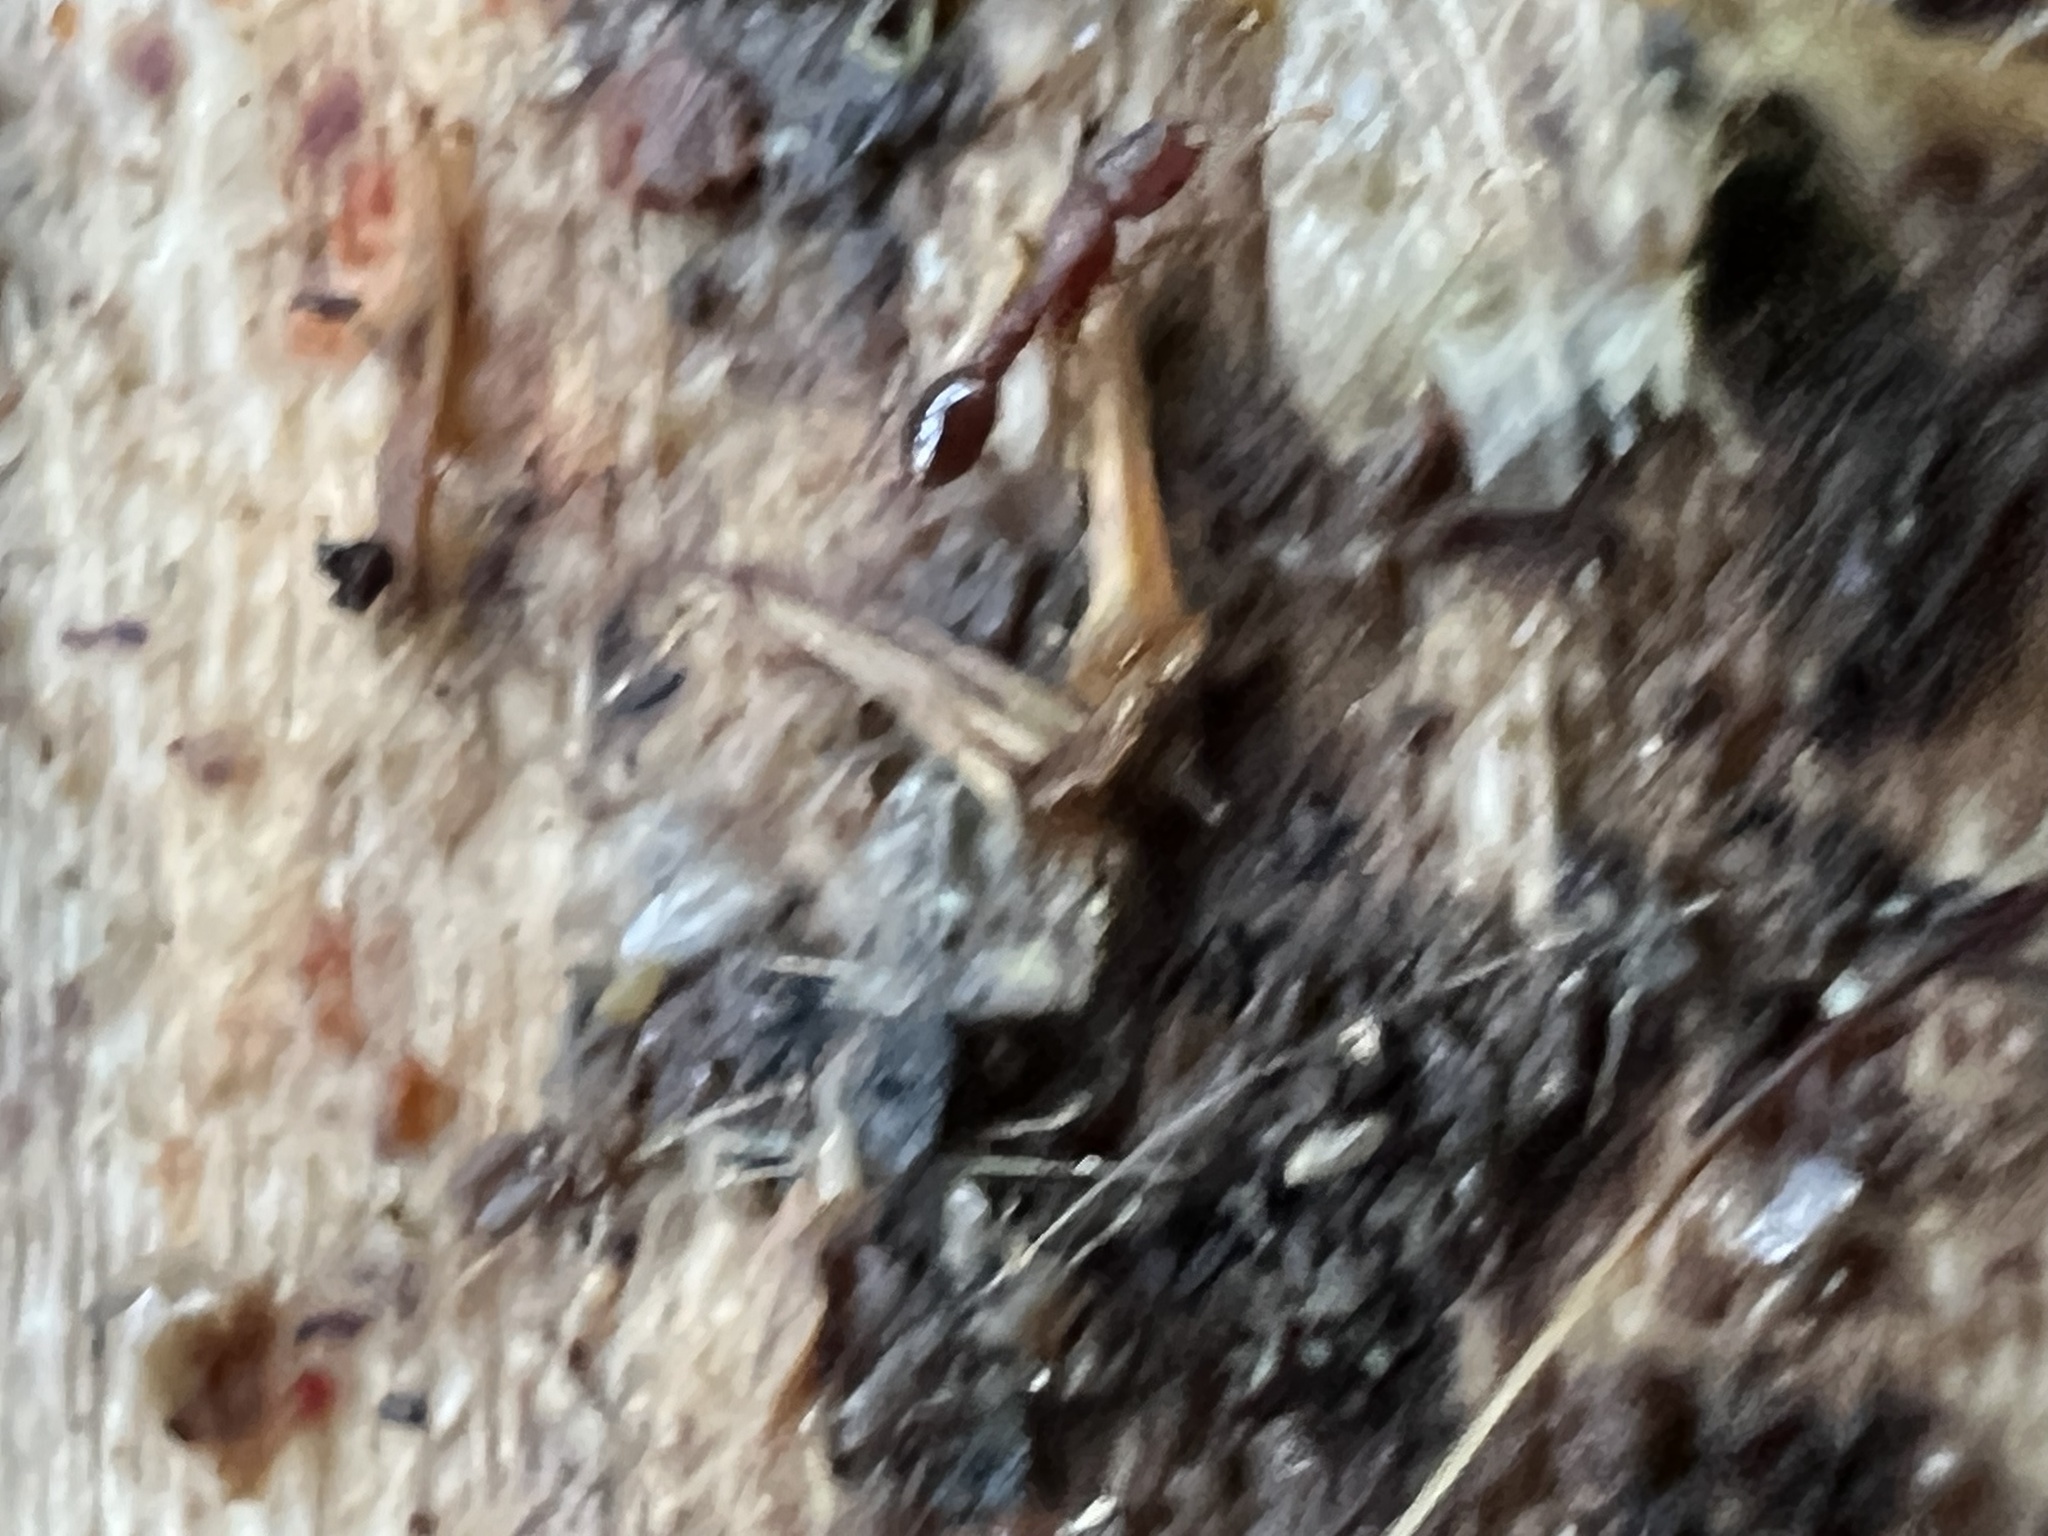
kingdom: Animalia
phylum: Arthropoda
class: Insecta
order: Hymenoptera
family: Formicidae
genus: Vollenhovia
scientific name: Vollenhovia emeryi
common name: Ant
